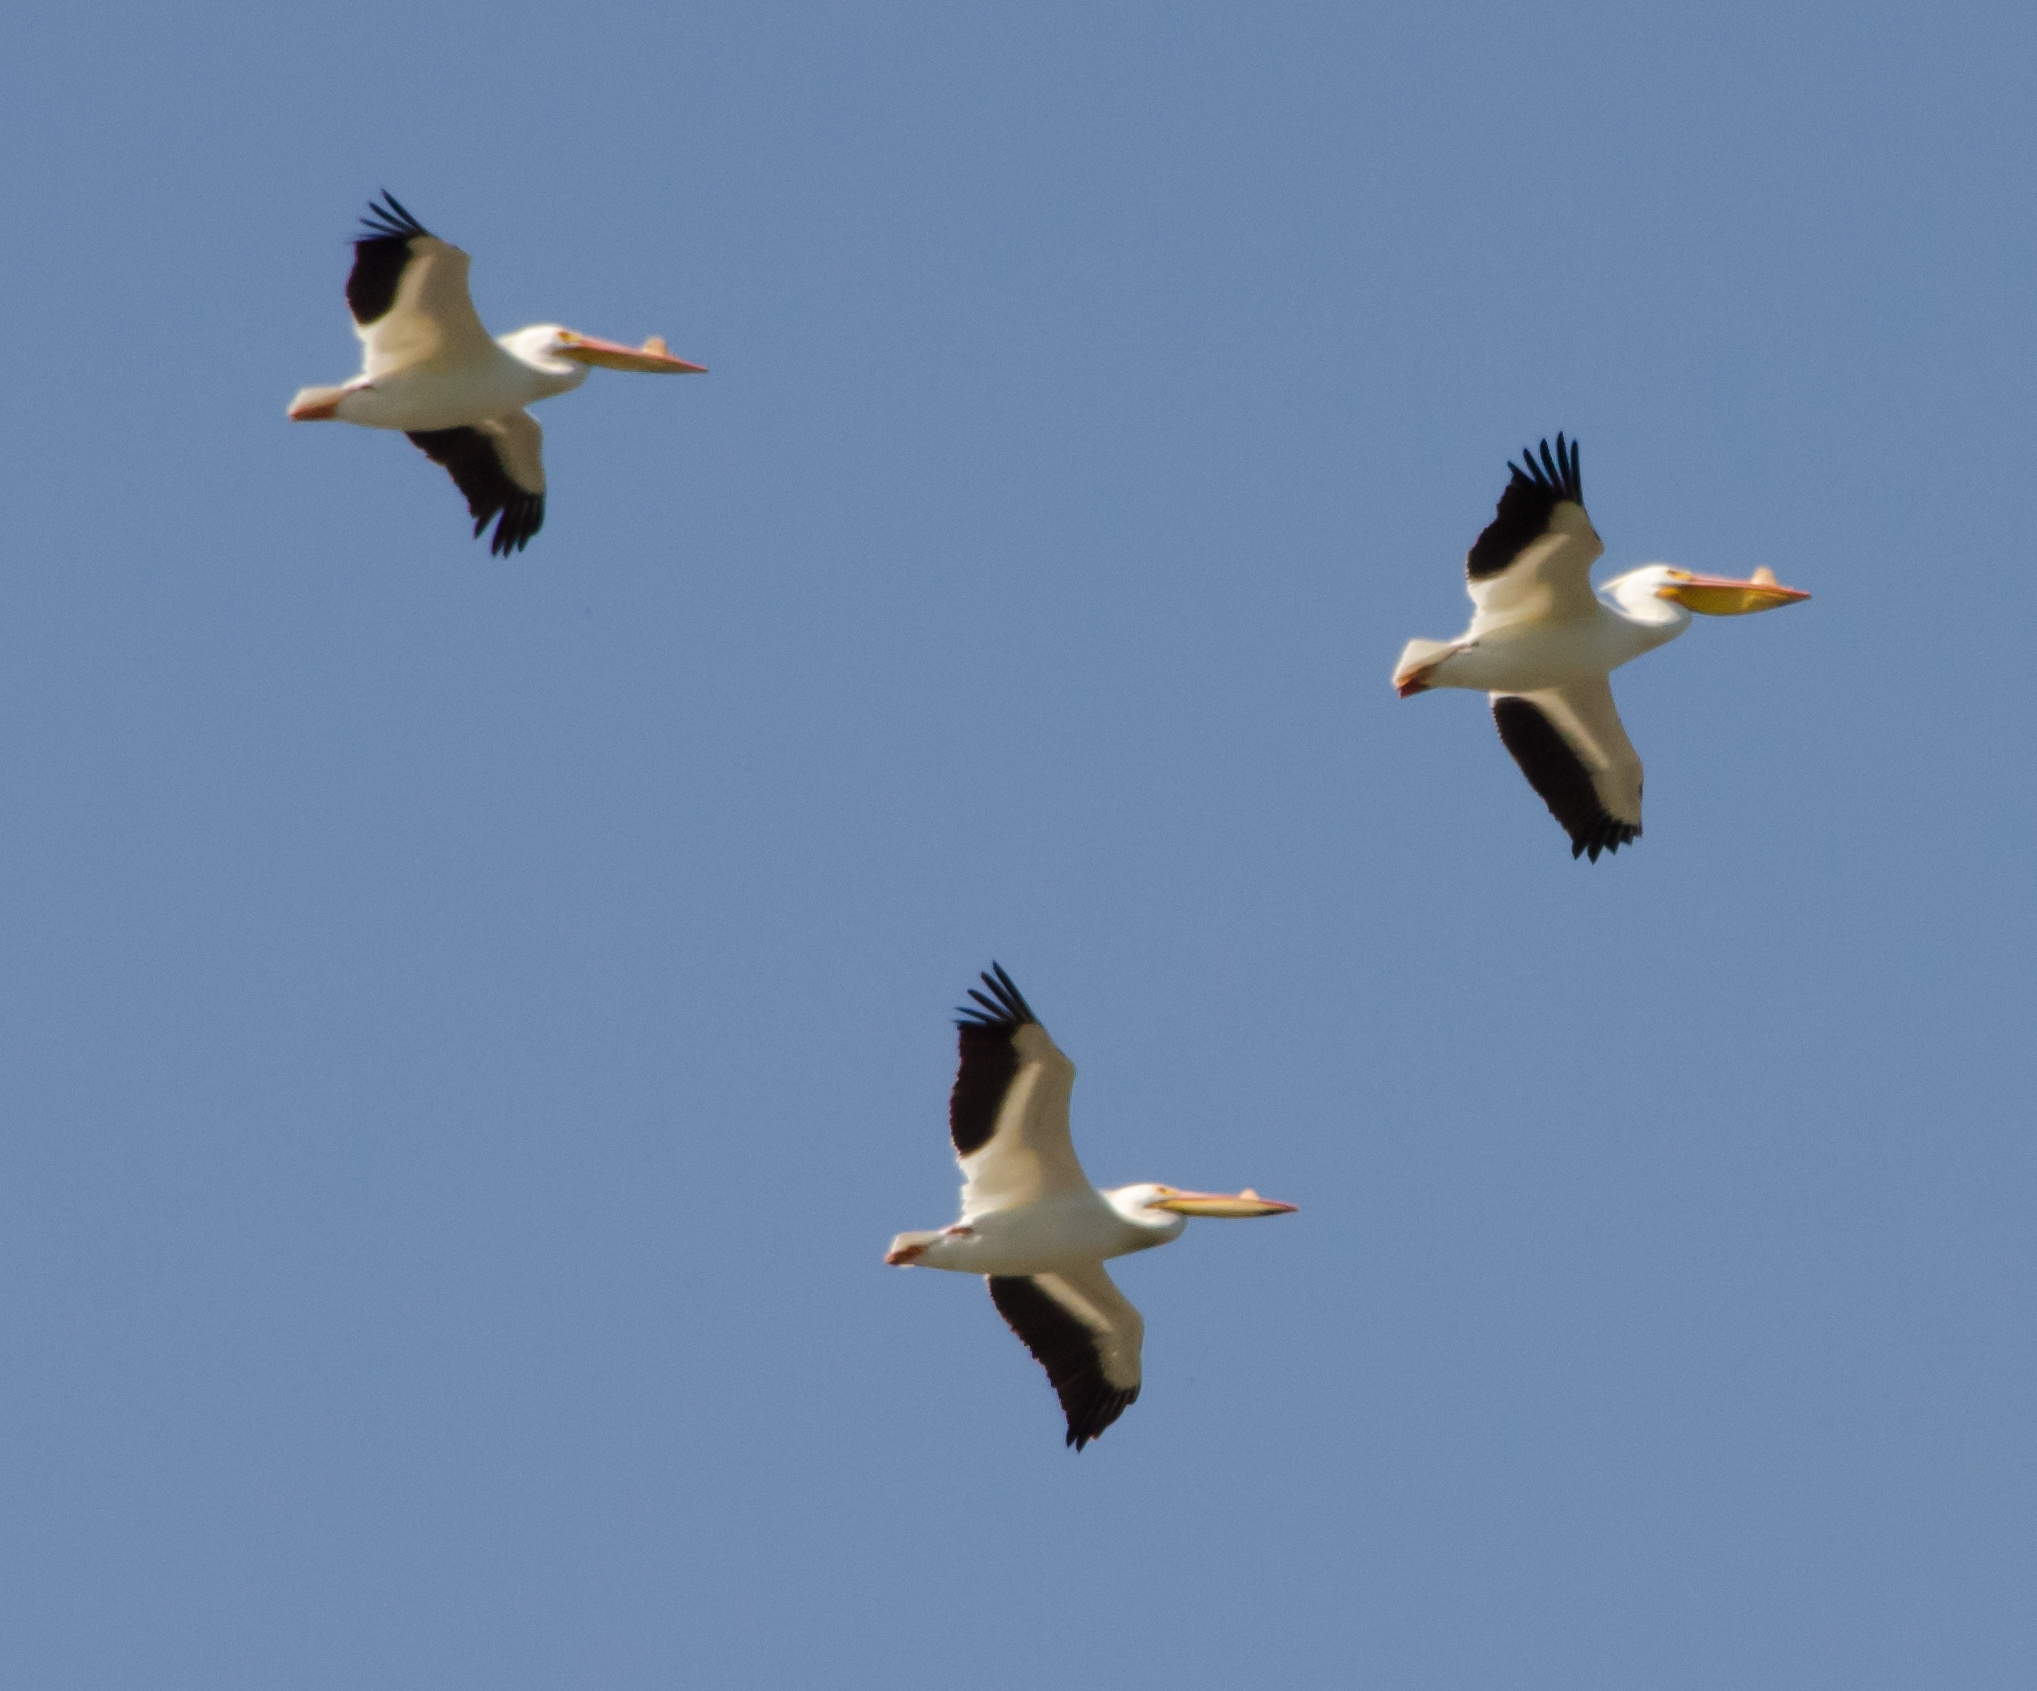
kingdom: Animalia
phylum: Chordata
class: Aves
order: Pelecaniformes
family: Pelecanidae
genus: Pelecanus
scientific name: Pelecanus erythrorhynchos
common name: American white pelican
